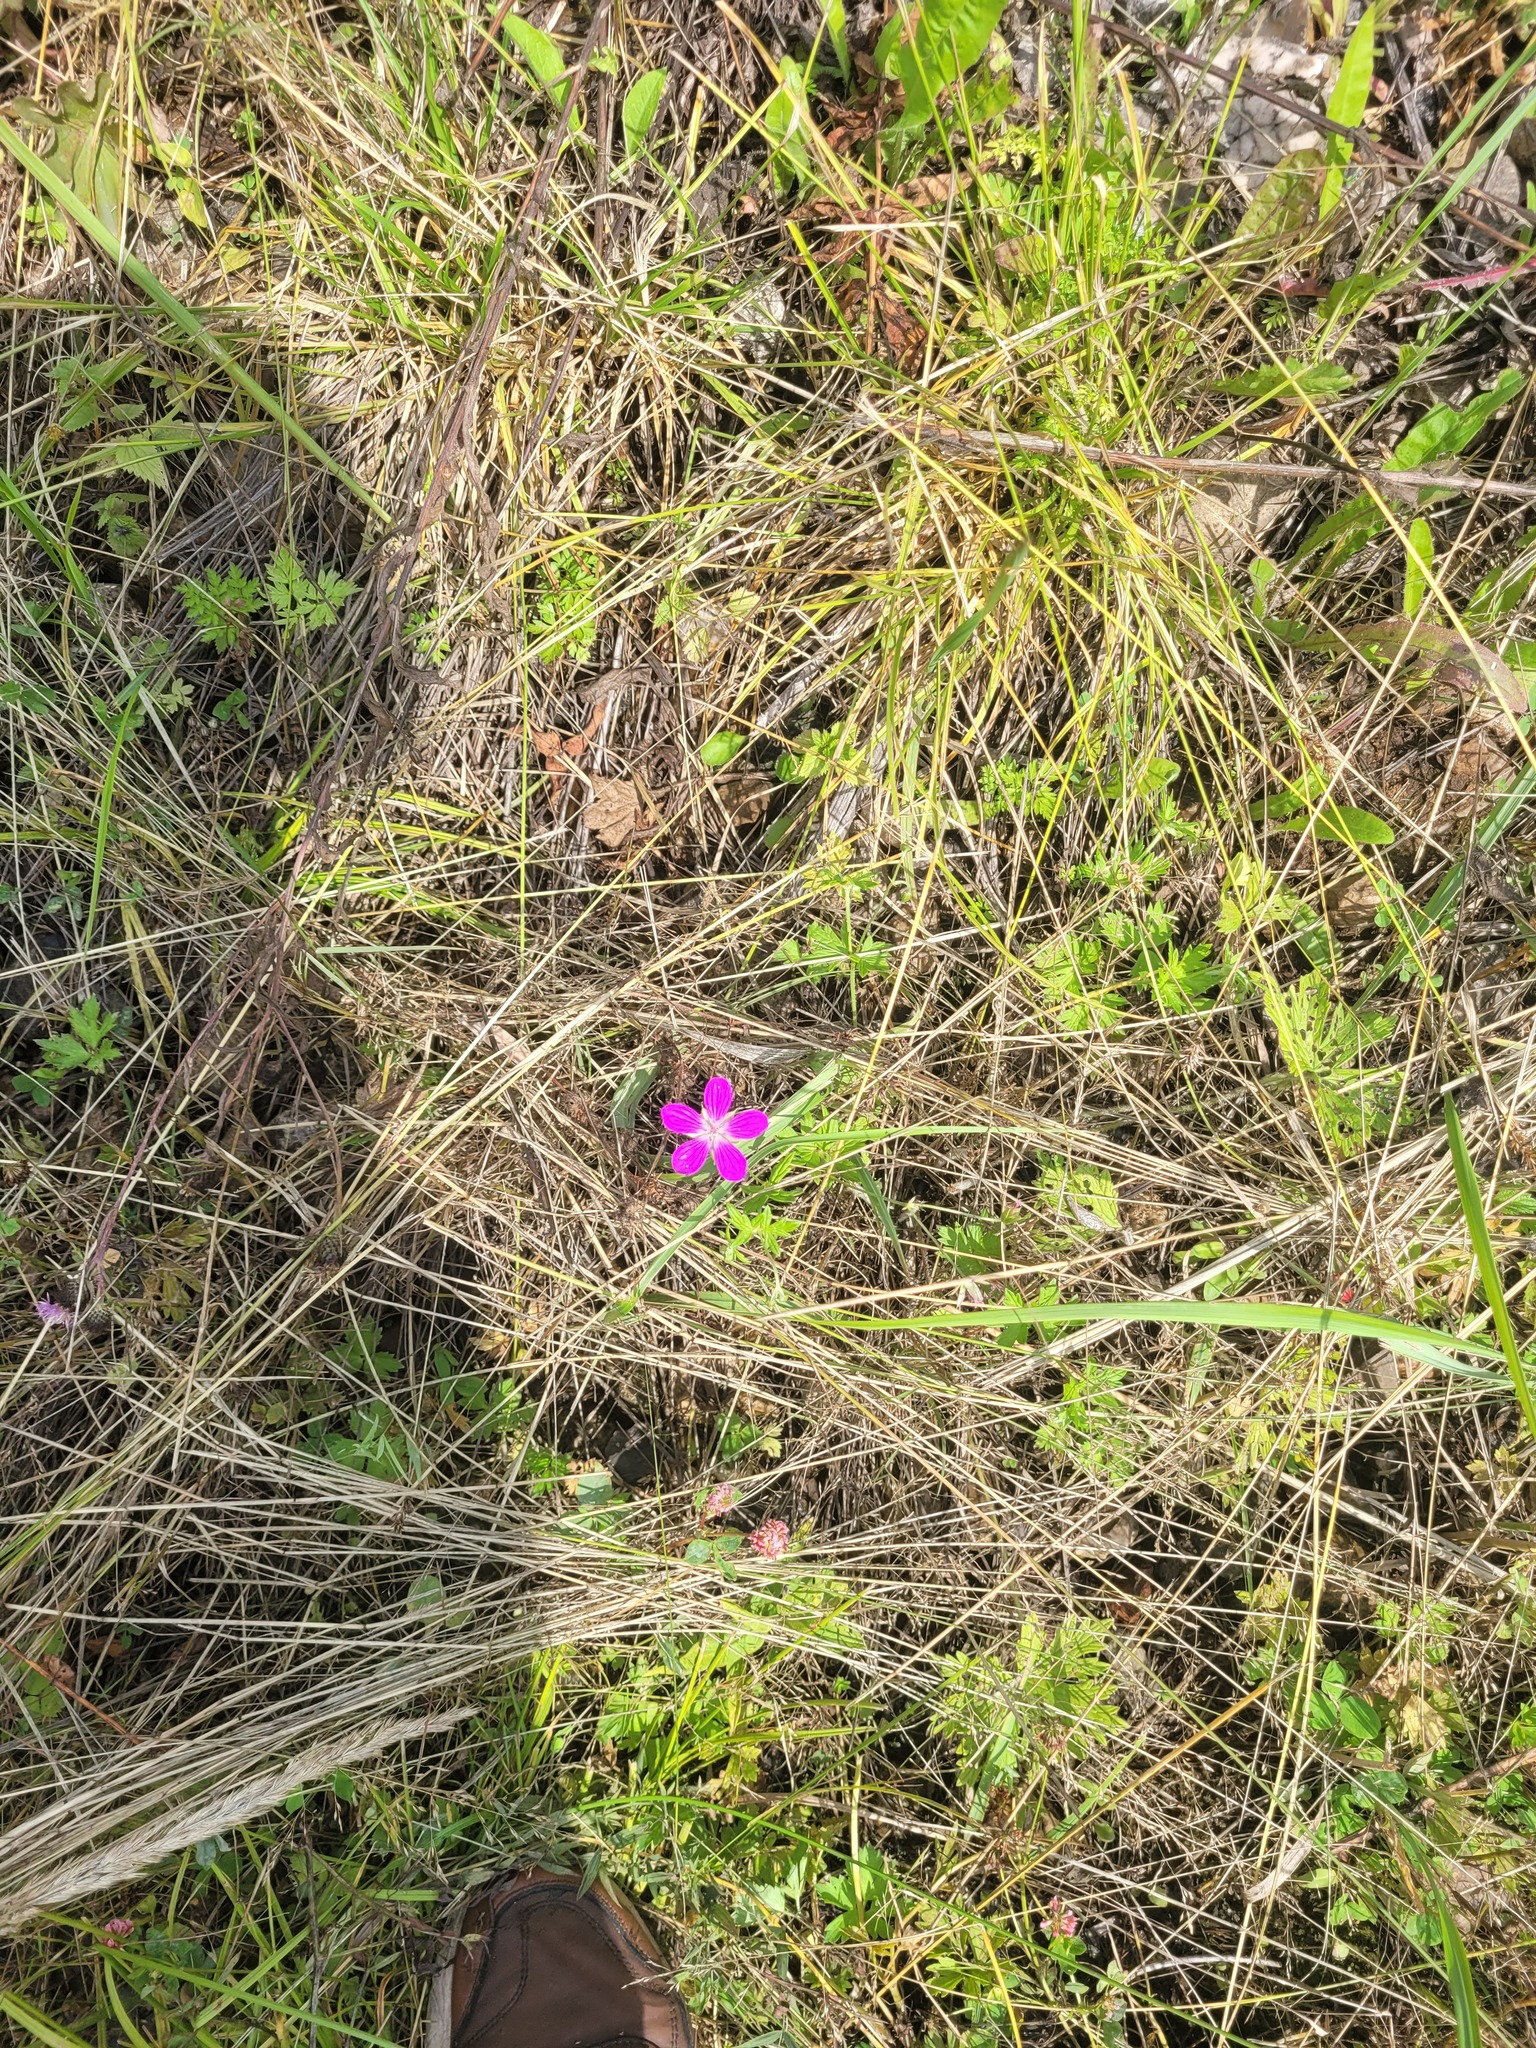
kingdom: Plantae
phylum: Tracheophyta
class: Magnoliopsida
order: Geraniales
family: Geraniaceae
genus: Geranium
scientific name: Geranium palustre
